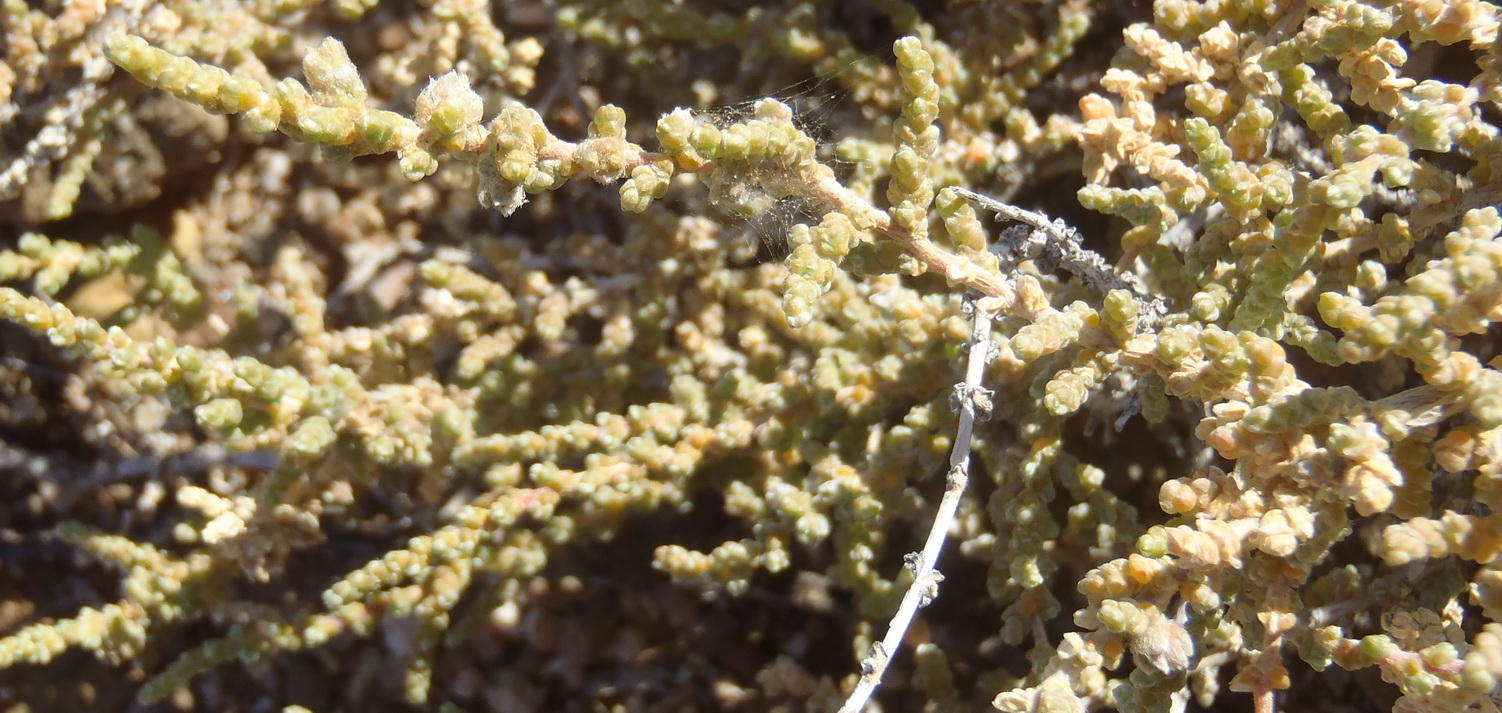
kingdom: Plantae
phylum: Tracheophyta
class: Magnoliopsida
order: Caryophyllales
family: Amaranthaceae
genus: Caroxylon
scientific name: Caroxylon tuberculatum
